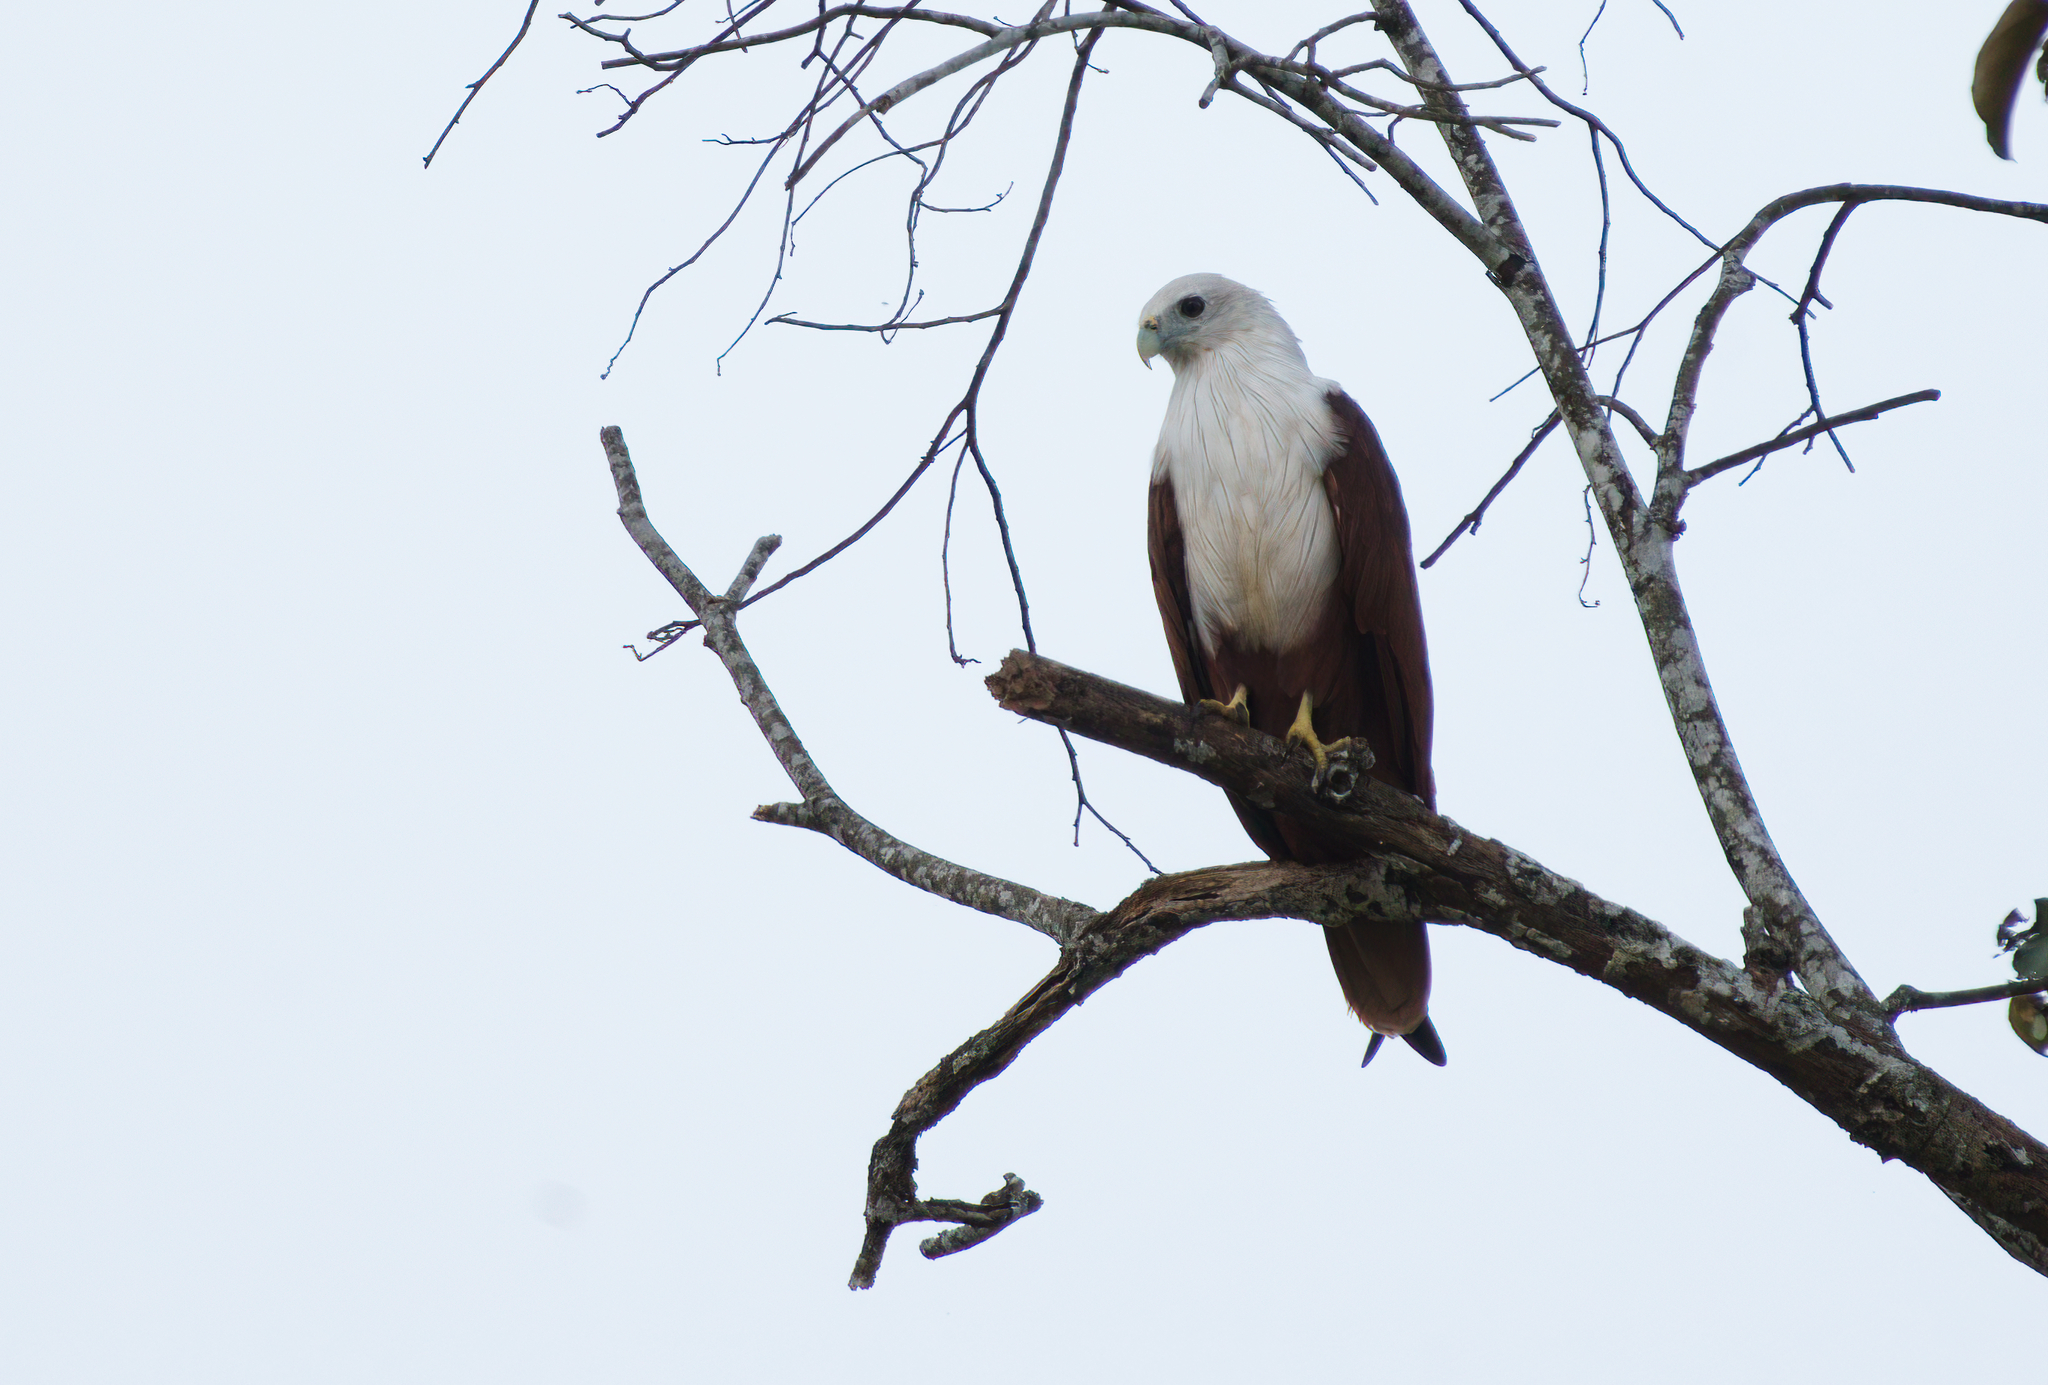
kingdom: Animalia
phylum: Chordata
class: Aves
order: Accipitriformes
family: Accipitridae
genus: Haliastur
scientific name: Haliastur indus
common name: Brahminy kite
